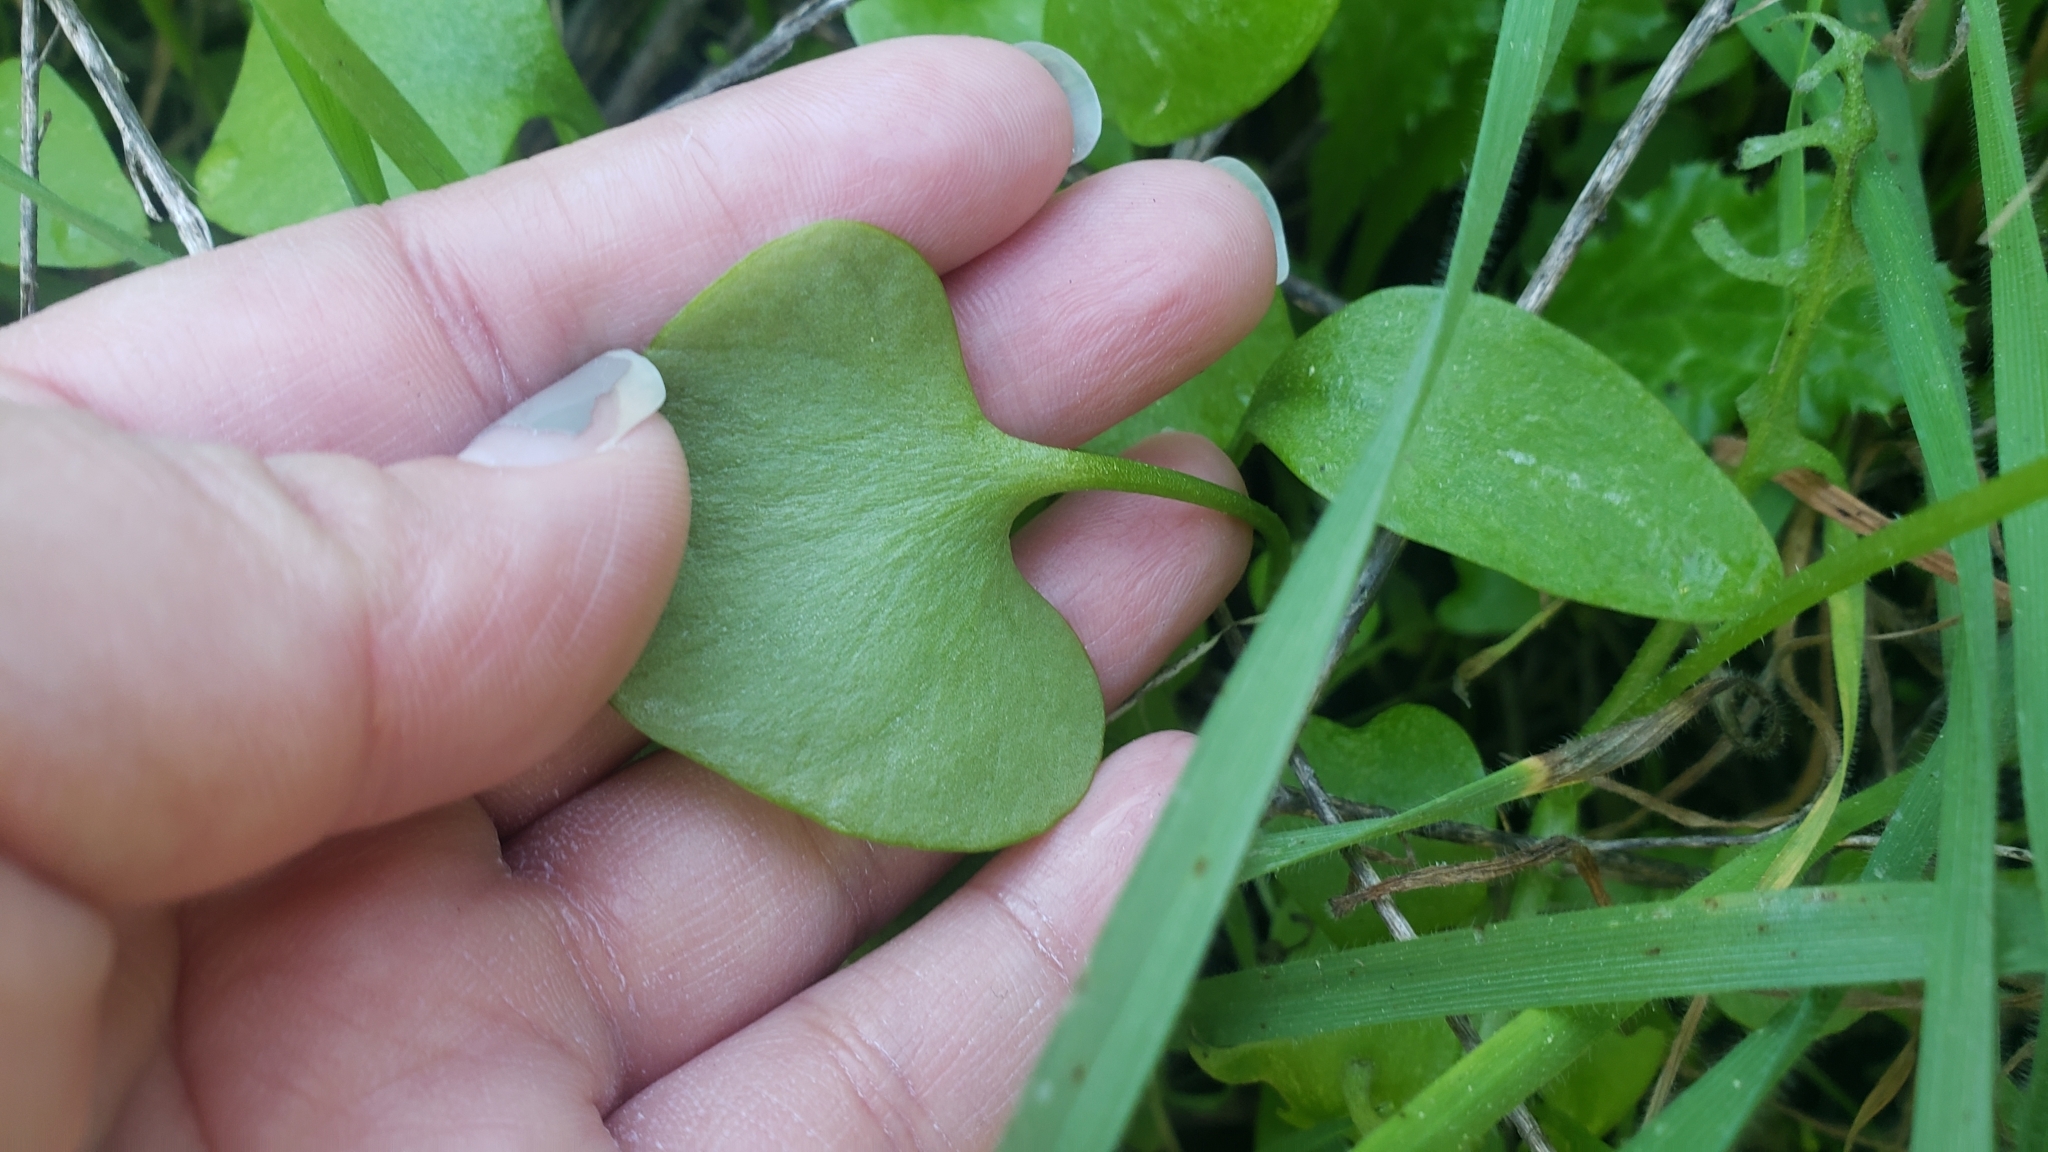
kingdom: Plantae
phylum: Tracheophyta
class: Magnoliopsida
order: Caryophyllales
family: Montiaceae
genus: Claytonia
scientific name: Claytonia perfoliata
